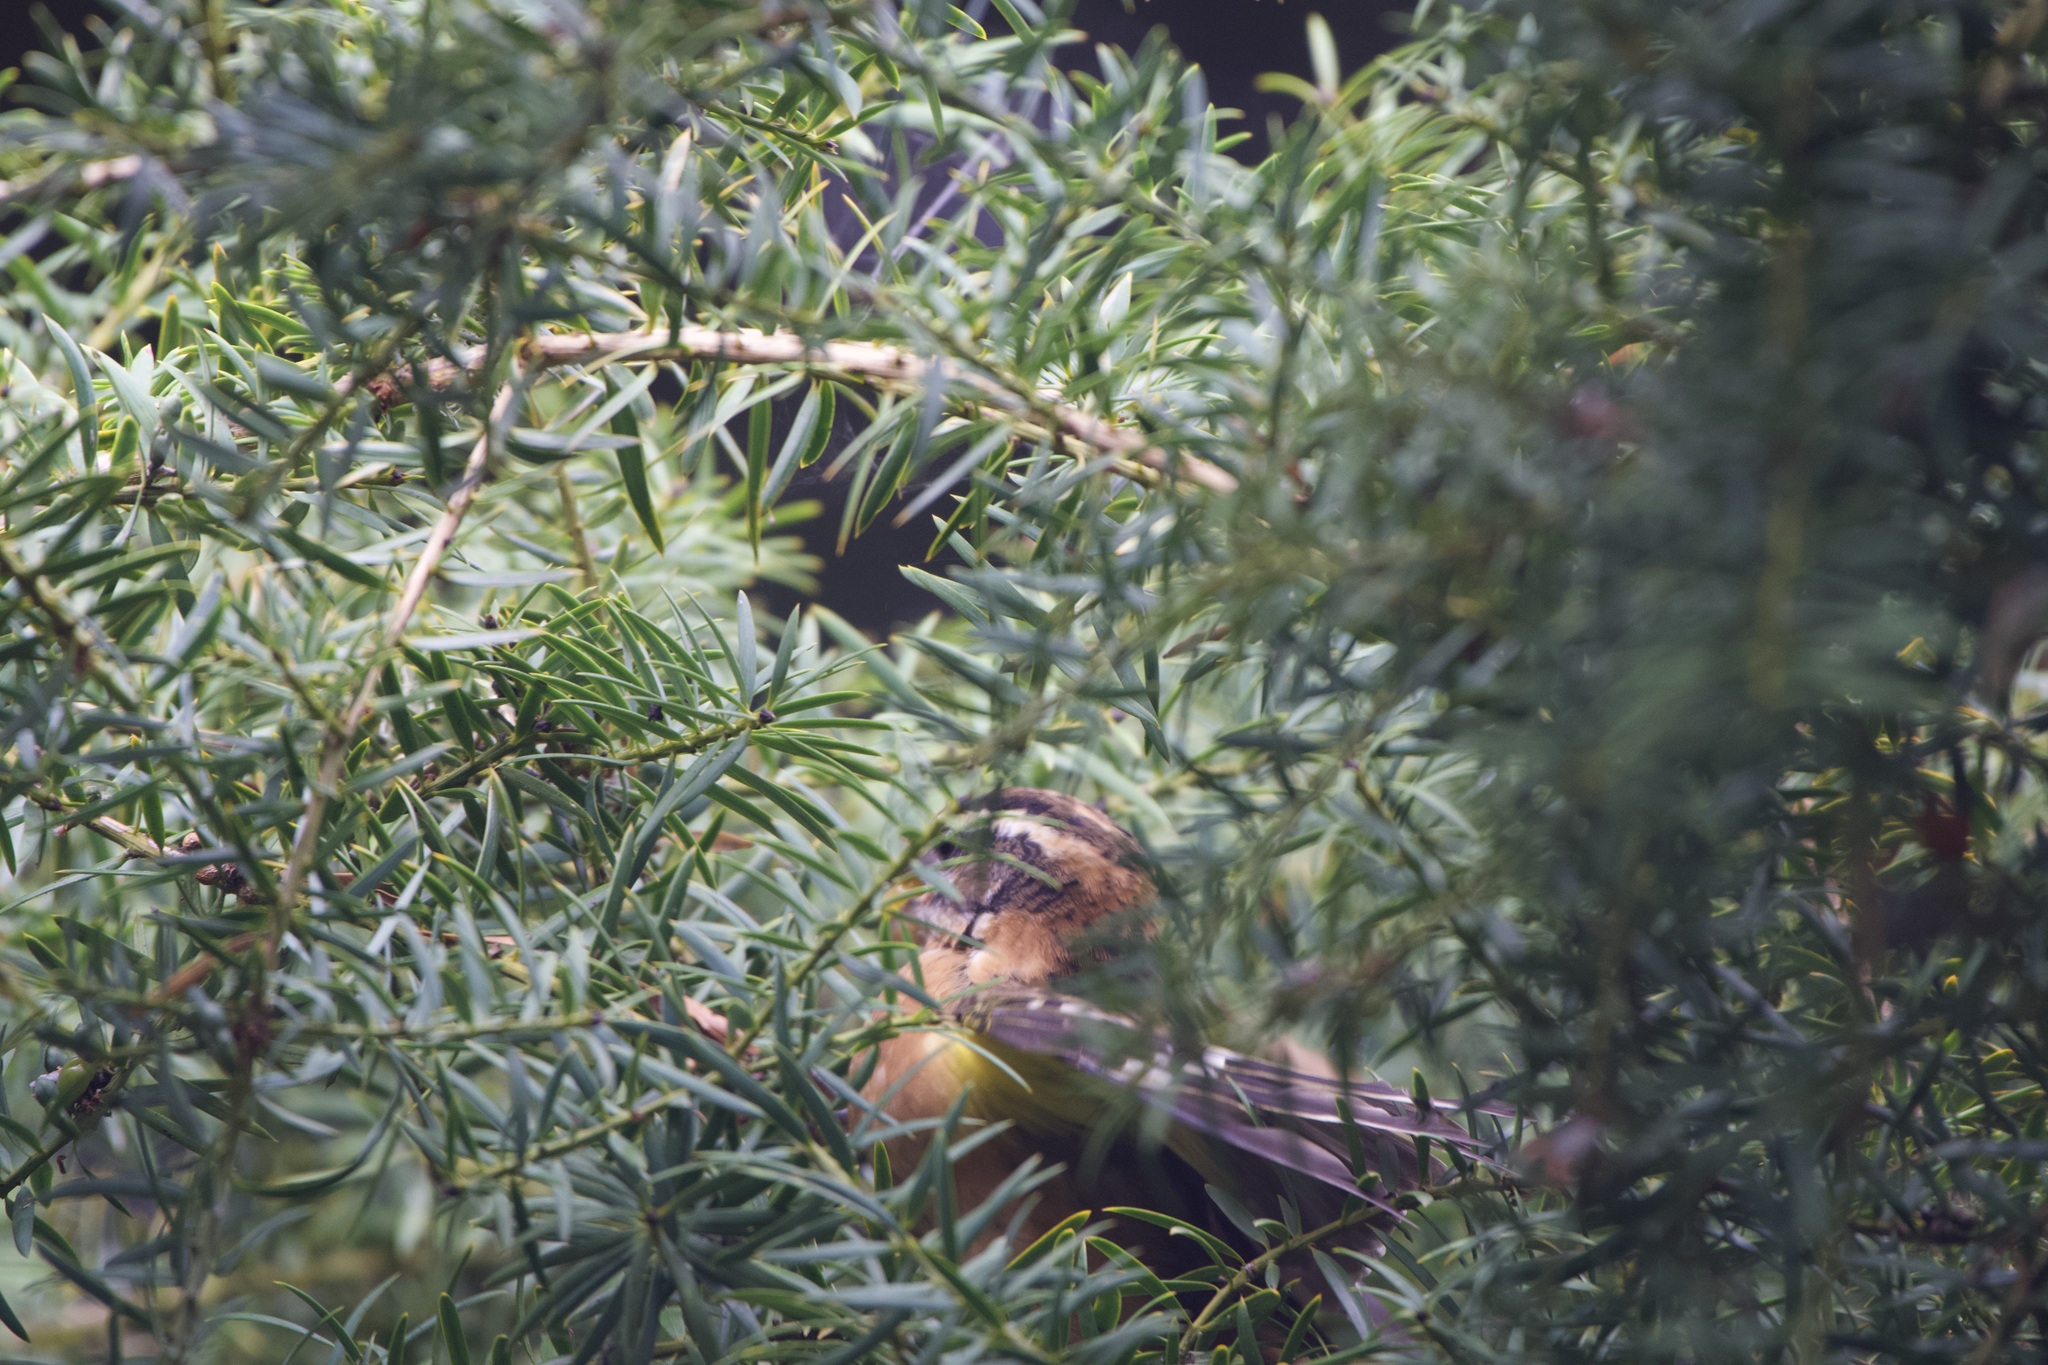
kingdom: Animalia
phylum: Chordata
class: Aves
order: Passeriformes
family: Cardinalidae
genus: Pheucticus
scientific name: Pheucticus melanocephalus
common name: Black-headed grosbeak
